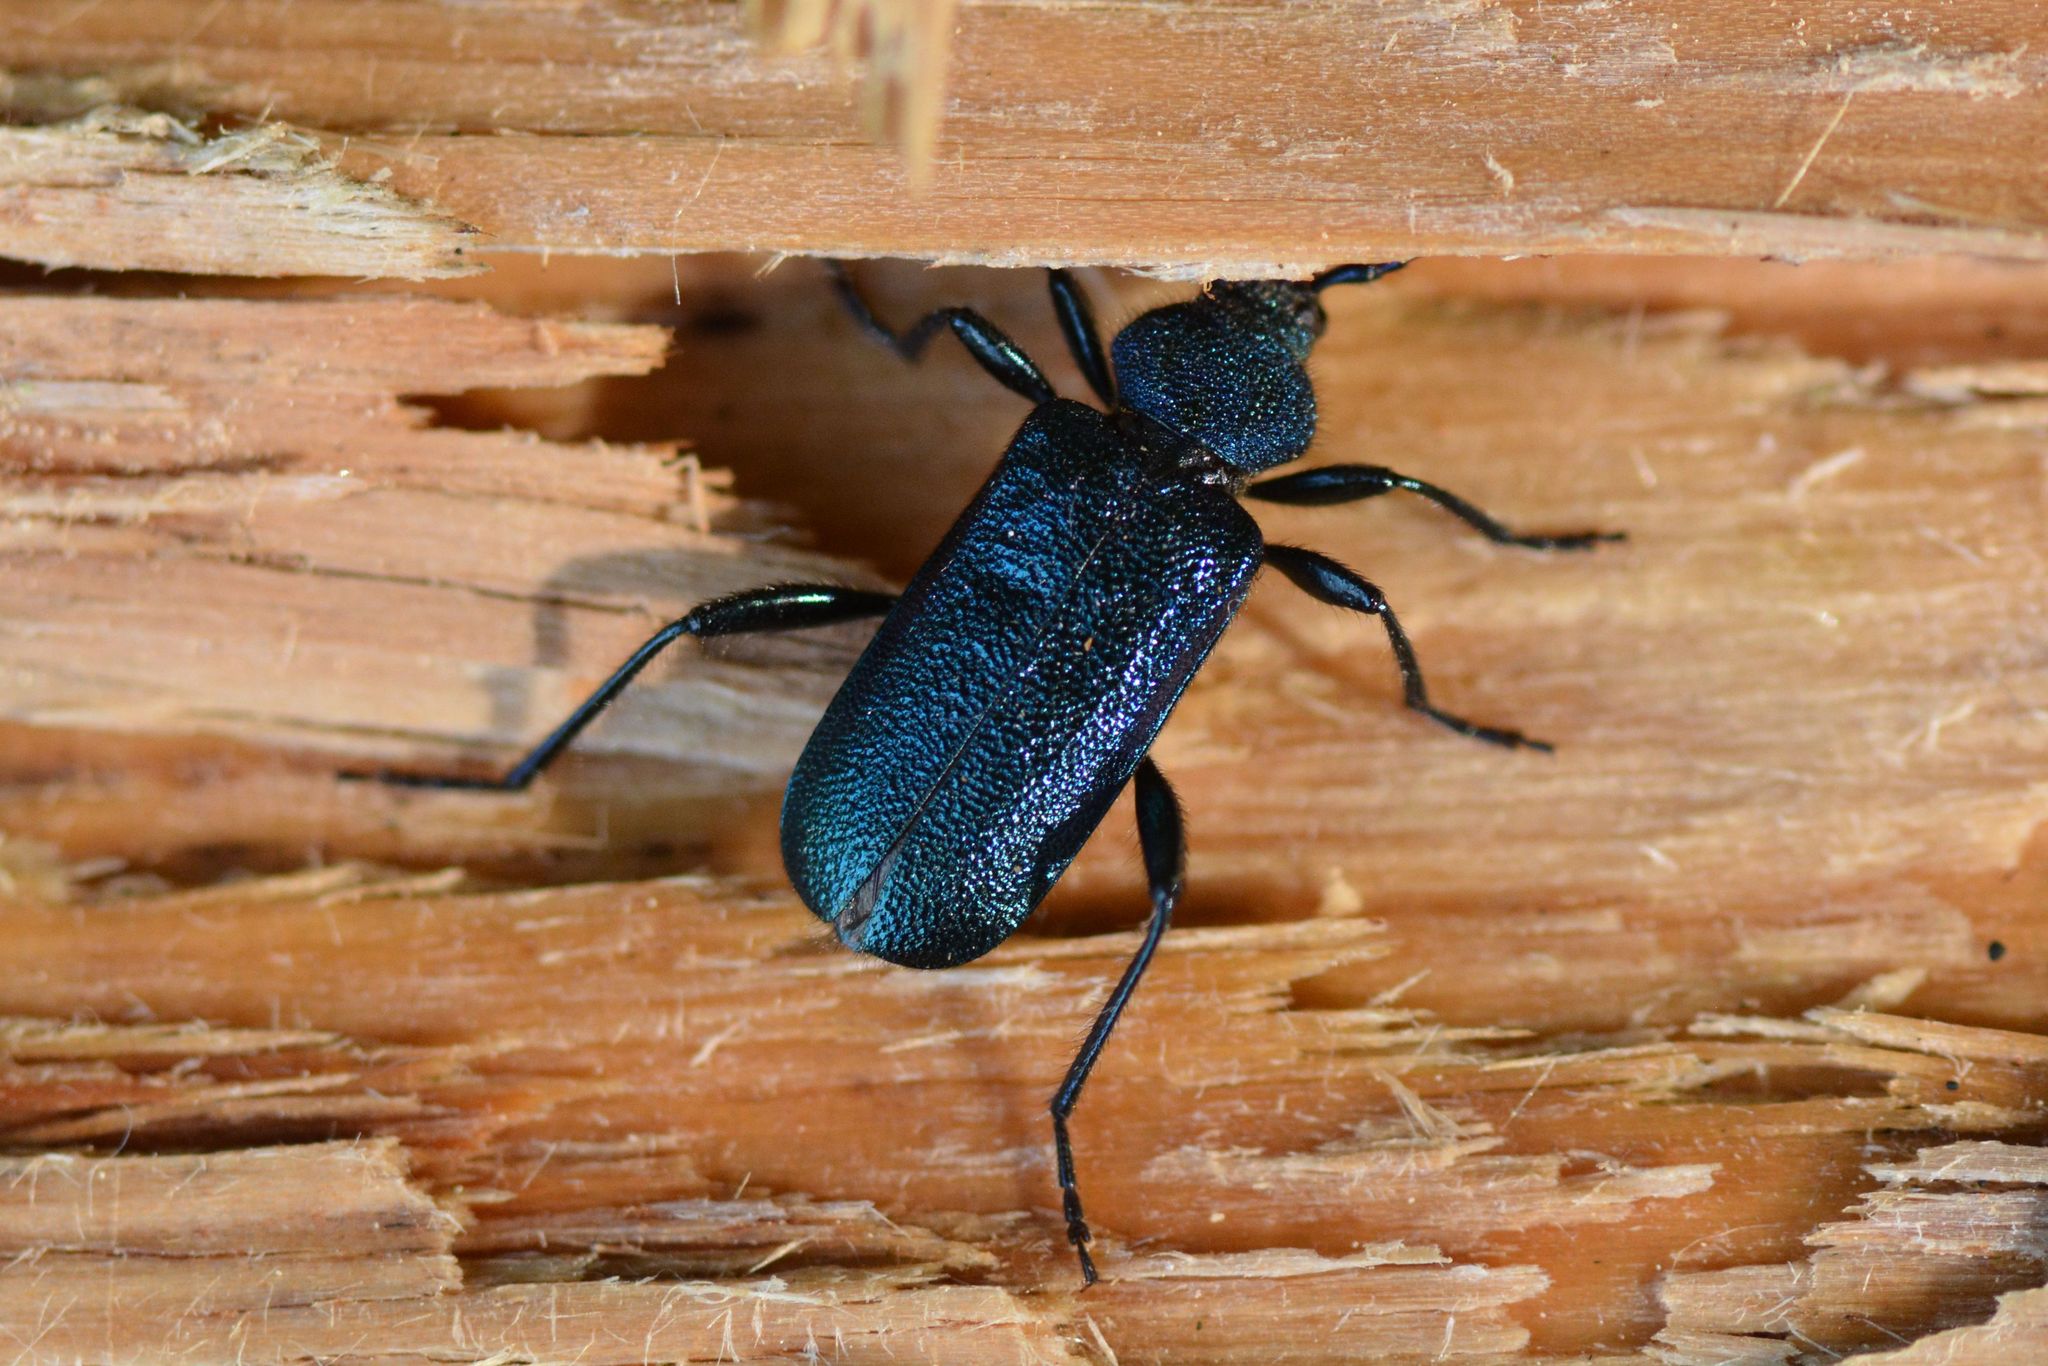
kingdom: Animalia
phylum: Arthropoda
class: Insecta
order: Coleoptera
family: Cerambycidae
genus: Callidium
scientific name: Callidium violaceum
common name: Violet tanbark beetle
